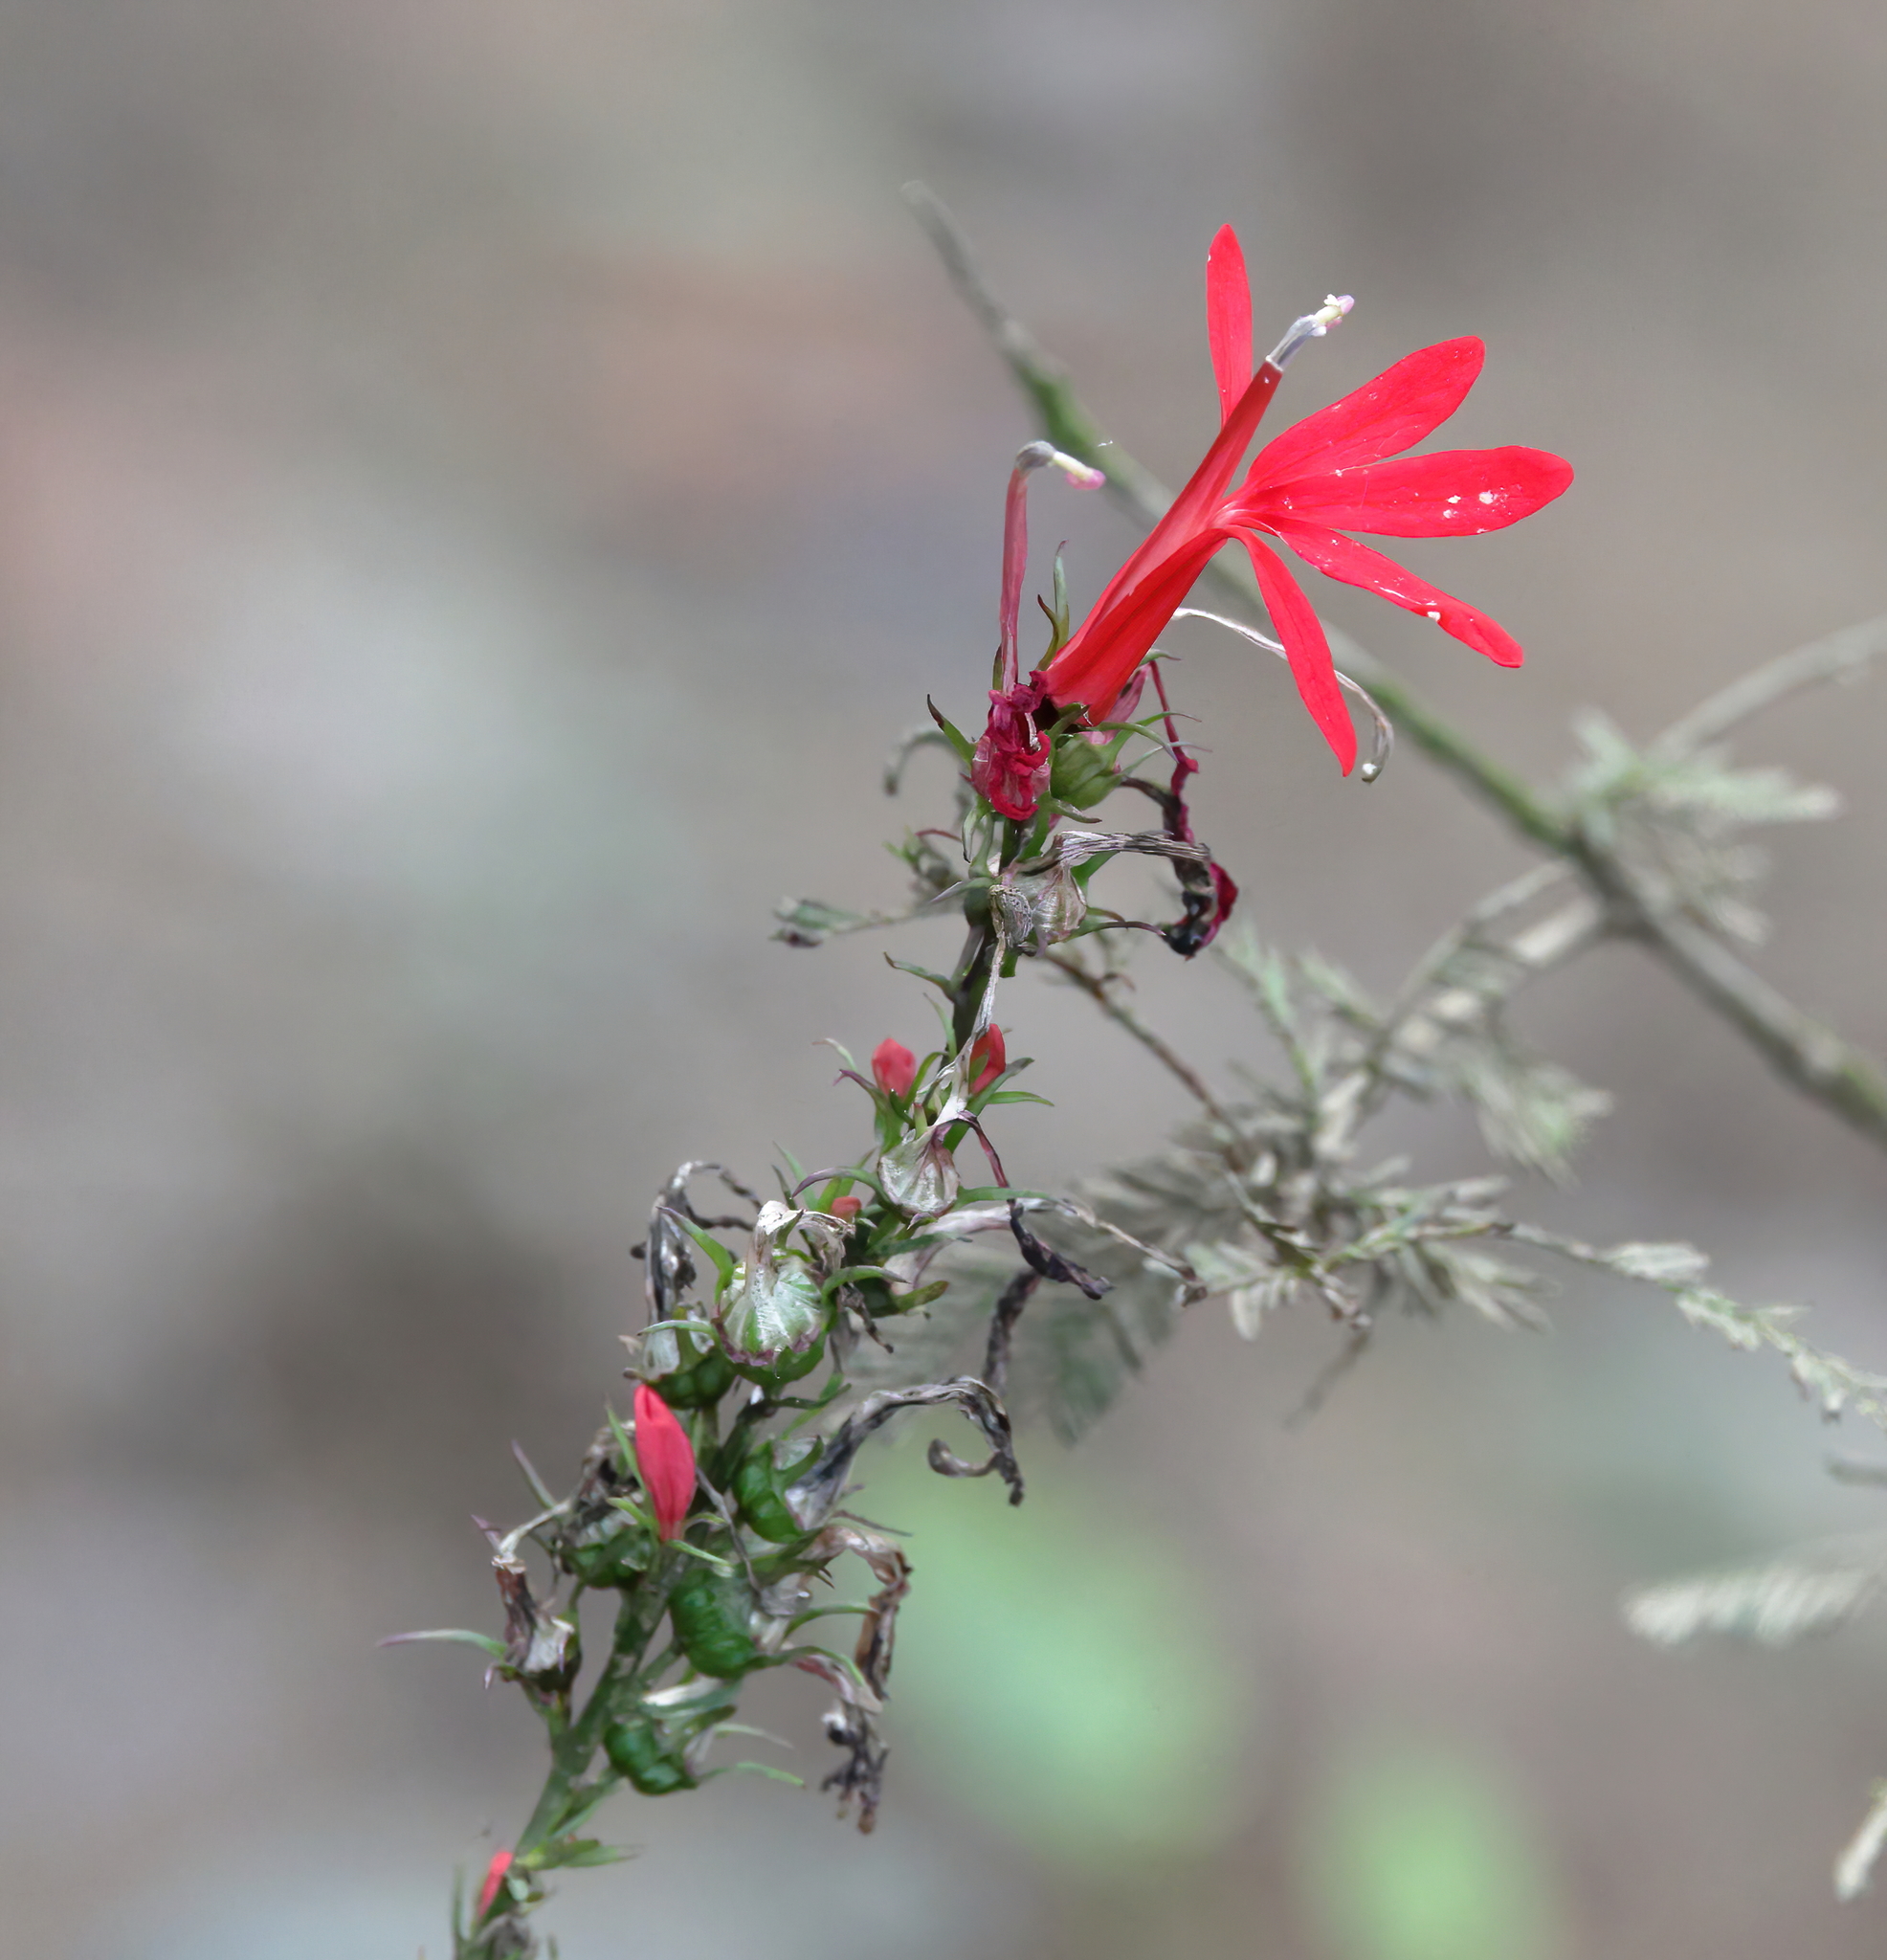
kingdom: Plantae
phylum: Tracheophyta
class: Magnoliopsida
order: Asterales
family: Campanulaceae
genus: Lobelia
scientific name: Lobelia cardinalis
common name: Cardinal flower
